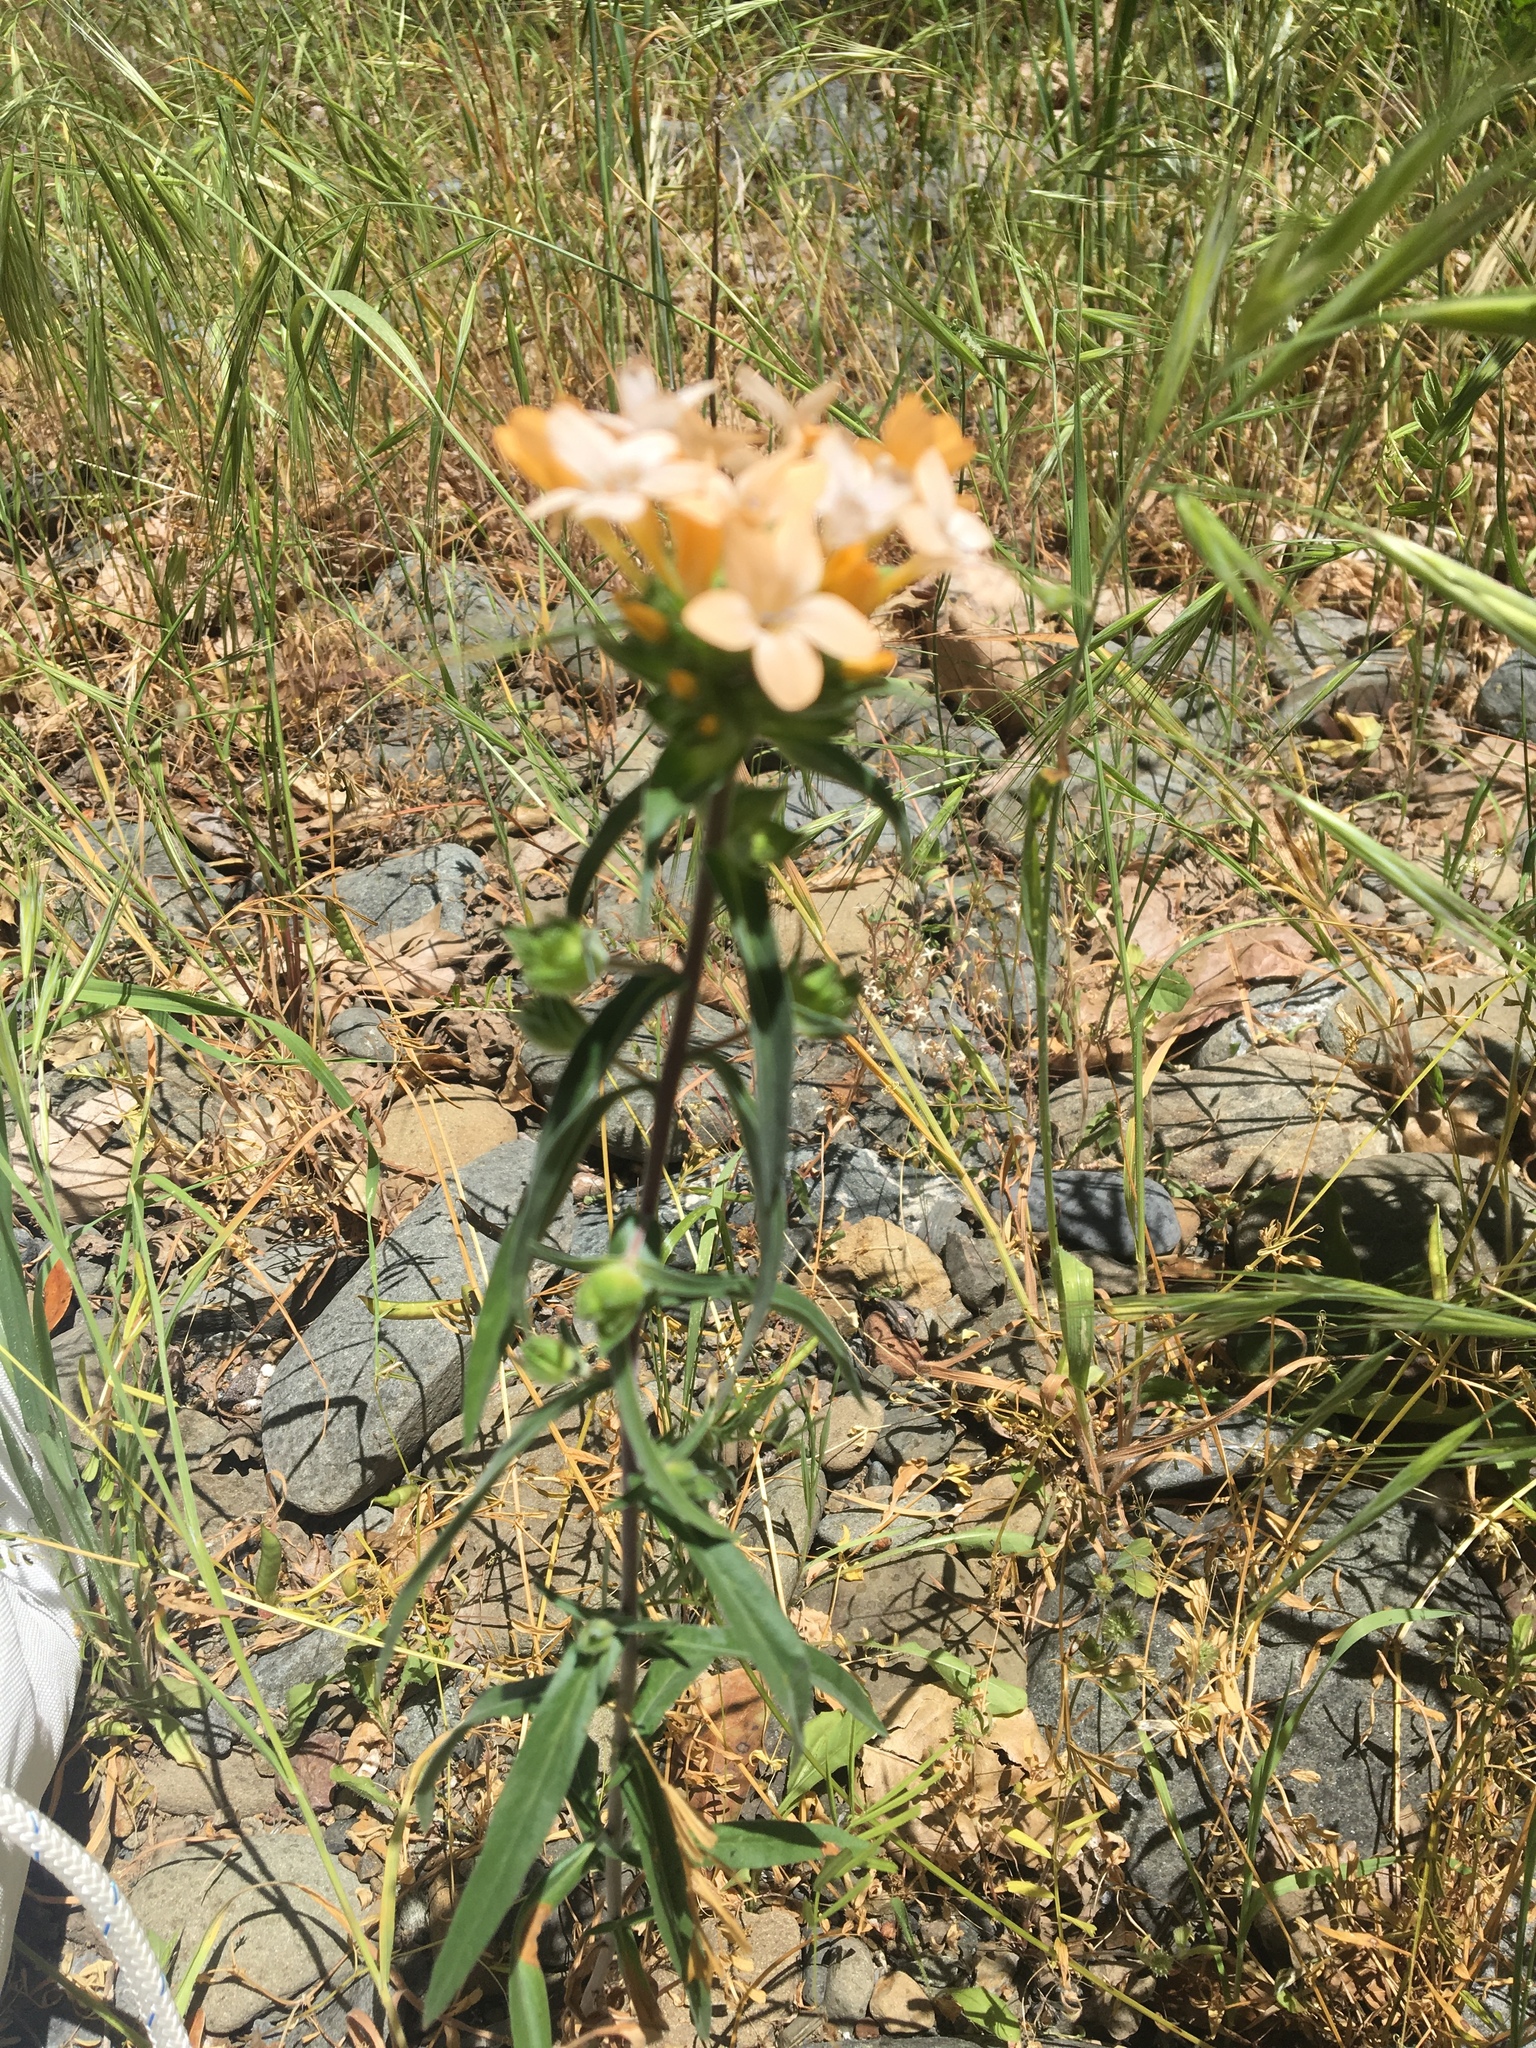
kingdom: Plantae
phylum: Tracheophyta
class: Magnoliopsida
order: Ericales
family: Polemoniaceae
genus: Collomia
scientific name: Collomia grandiflora
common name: California strawflower
